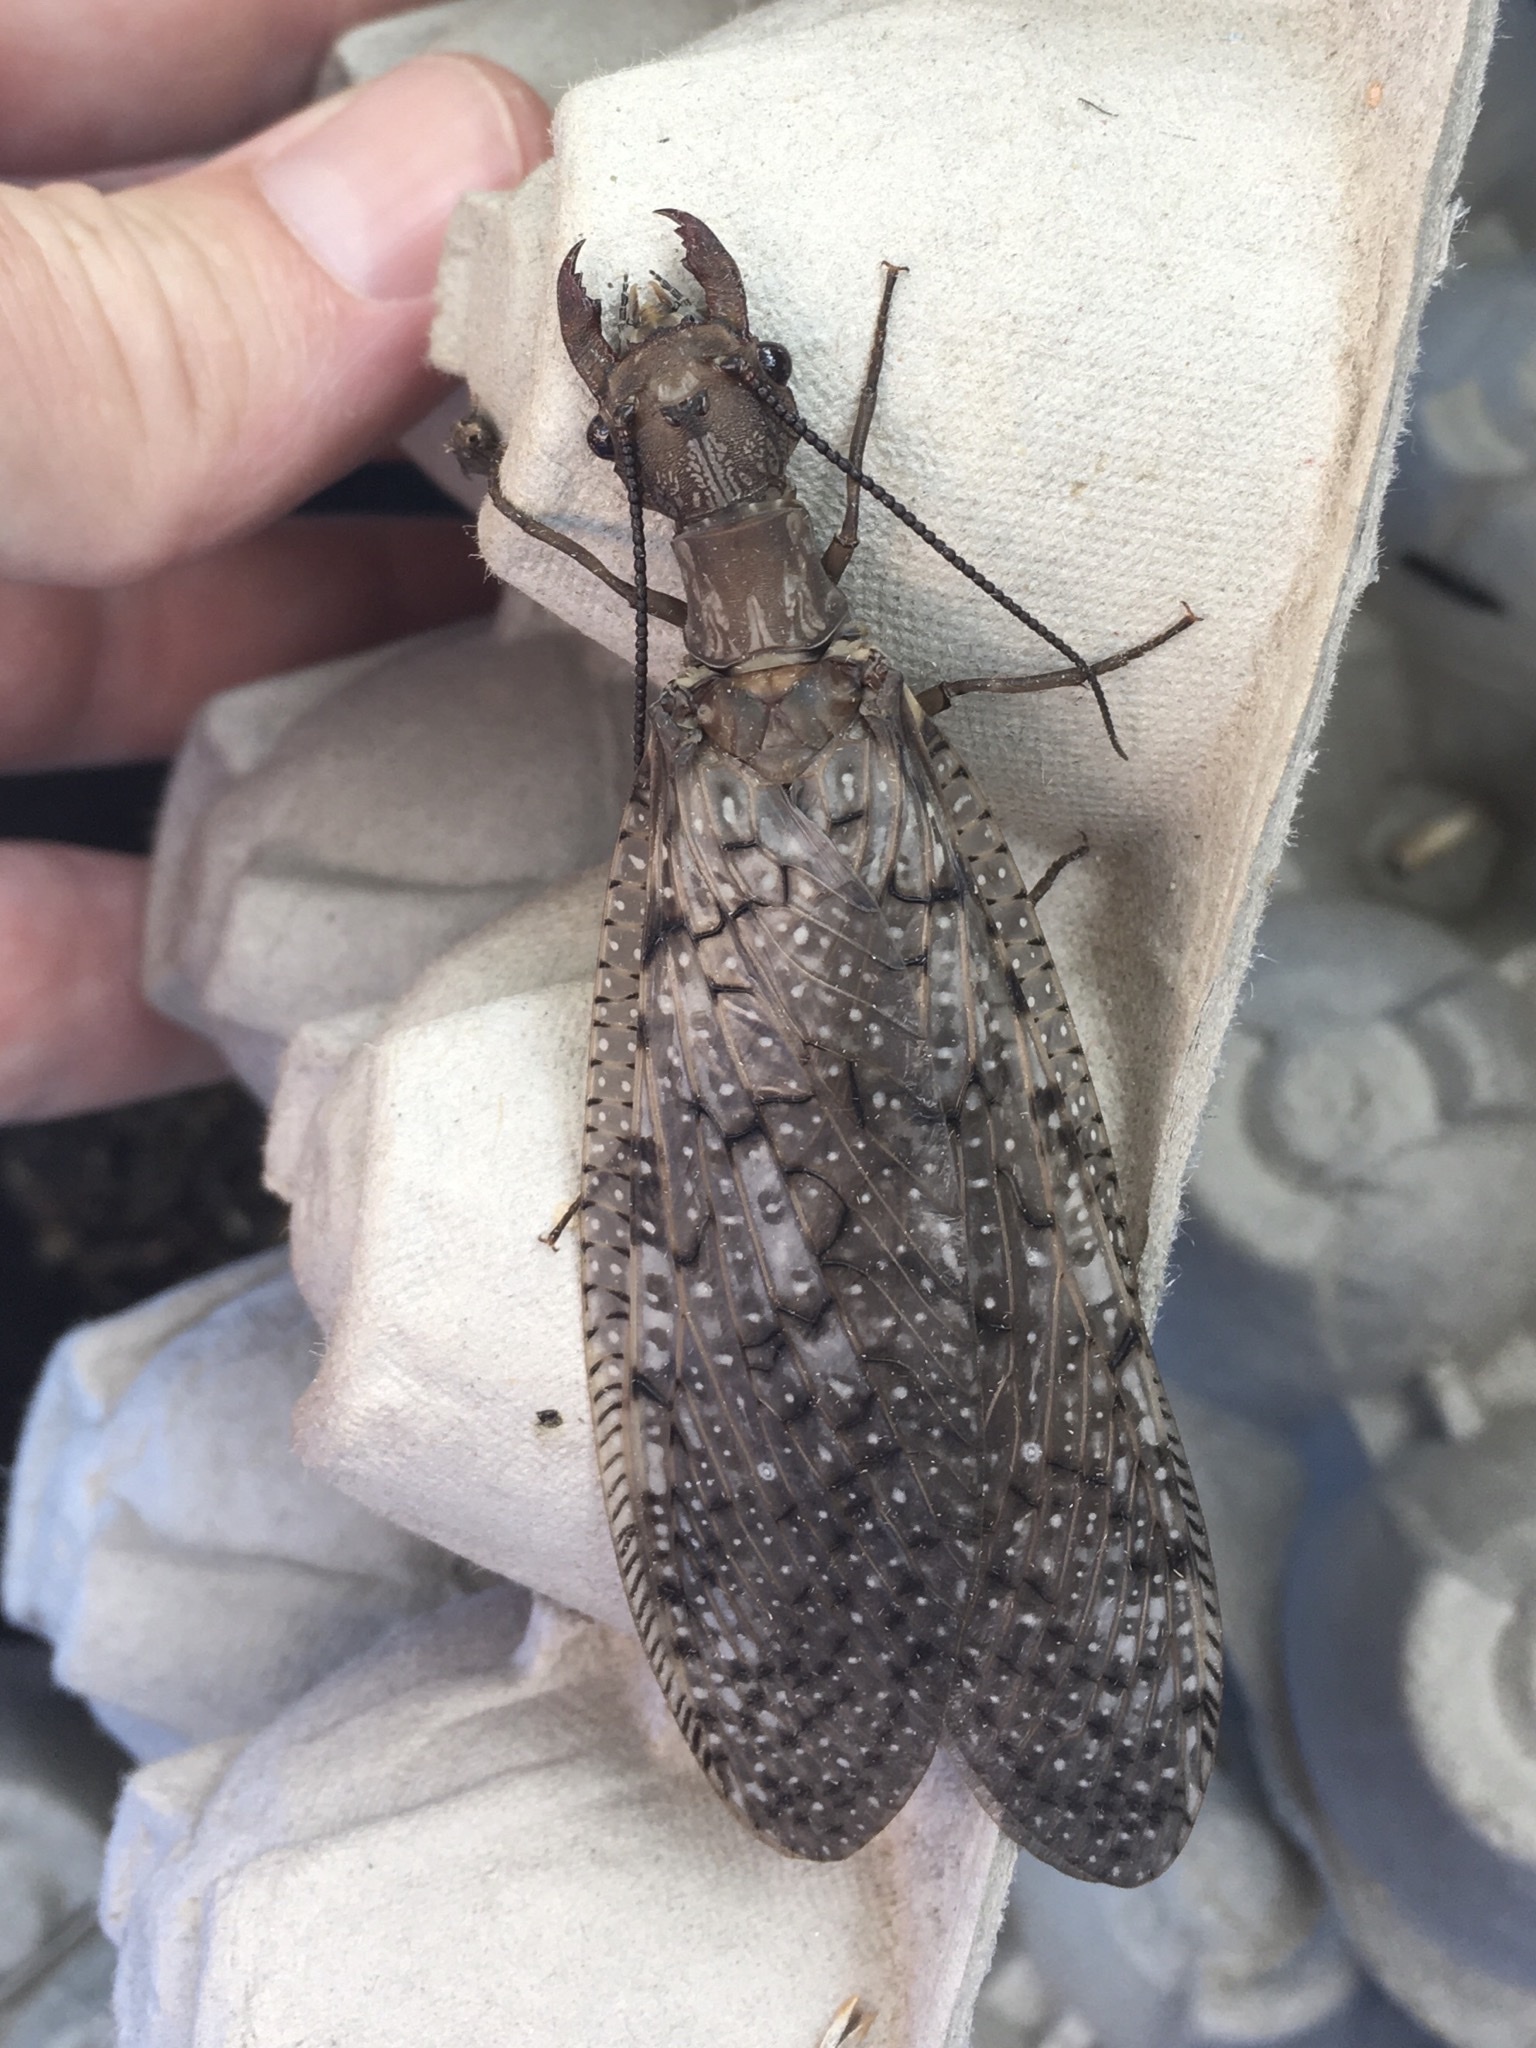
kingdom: Animalia
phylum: Arthropoda
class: Insecta
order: Megaloptera
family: Corydalidae
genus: Corydalus
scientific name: Corydalus cornutus
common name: Dobsonfly
